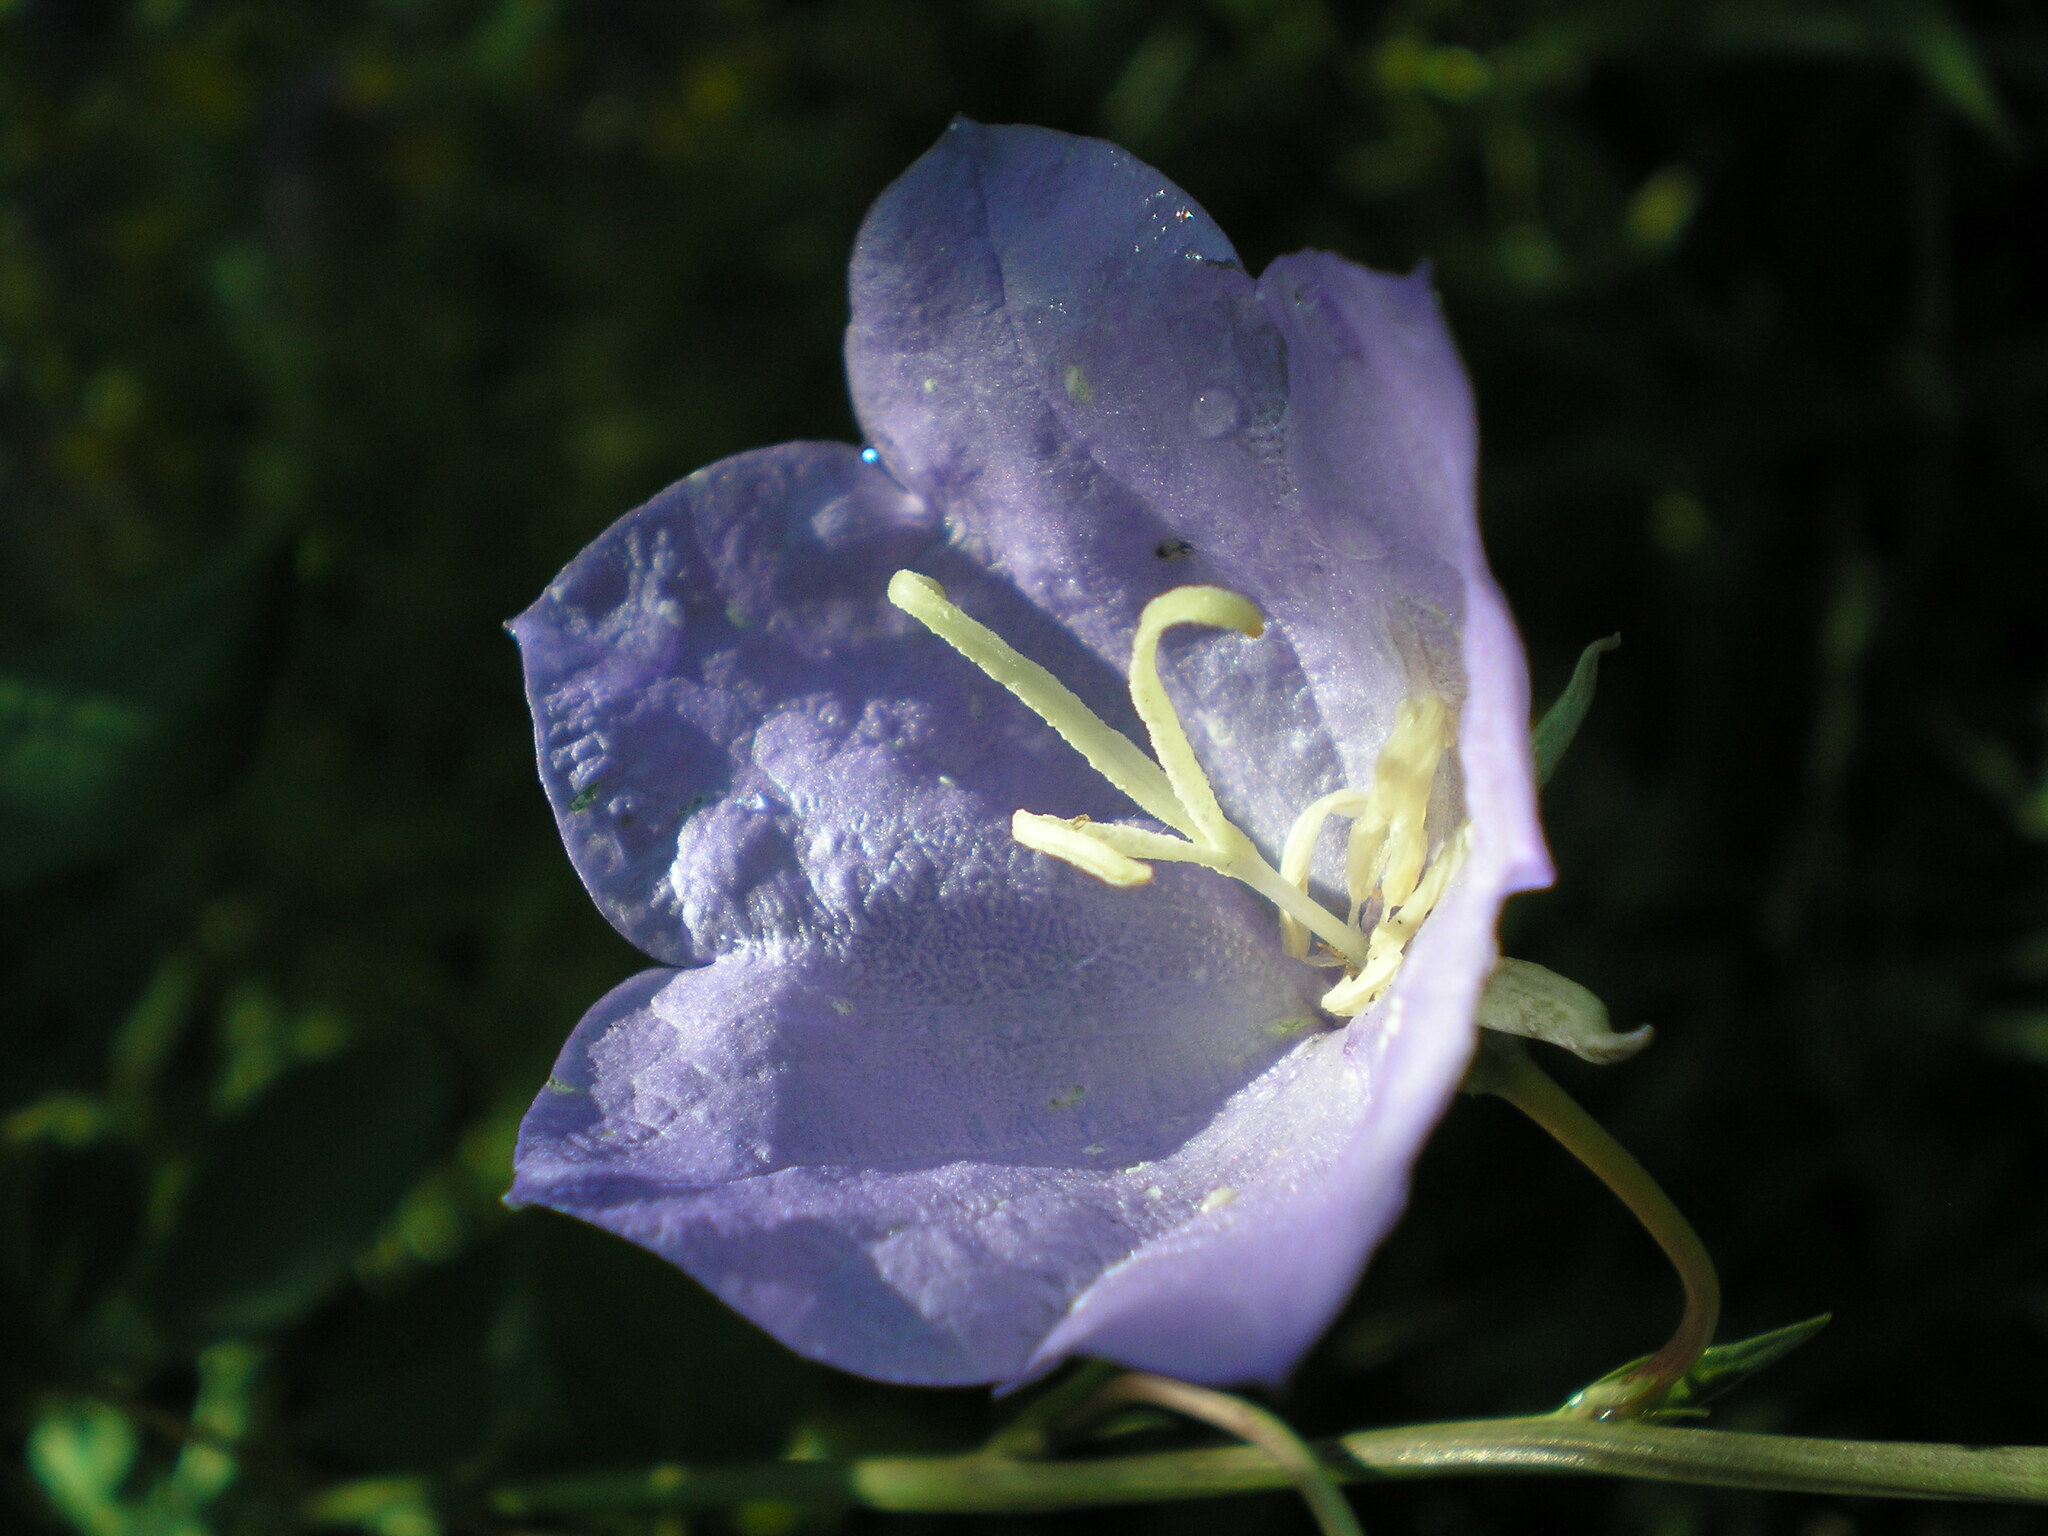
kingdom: Plantae
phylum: Tracheophyta
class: Magnoliopsida
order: Asterales
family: Campanulaceae
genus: Campanula
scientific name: Campanula persicifolia
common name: Peach-leaved bellflower
